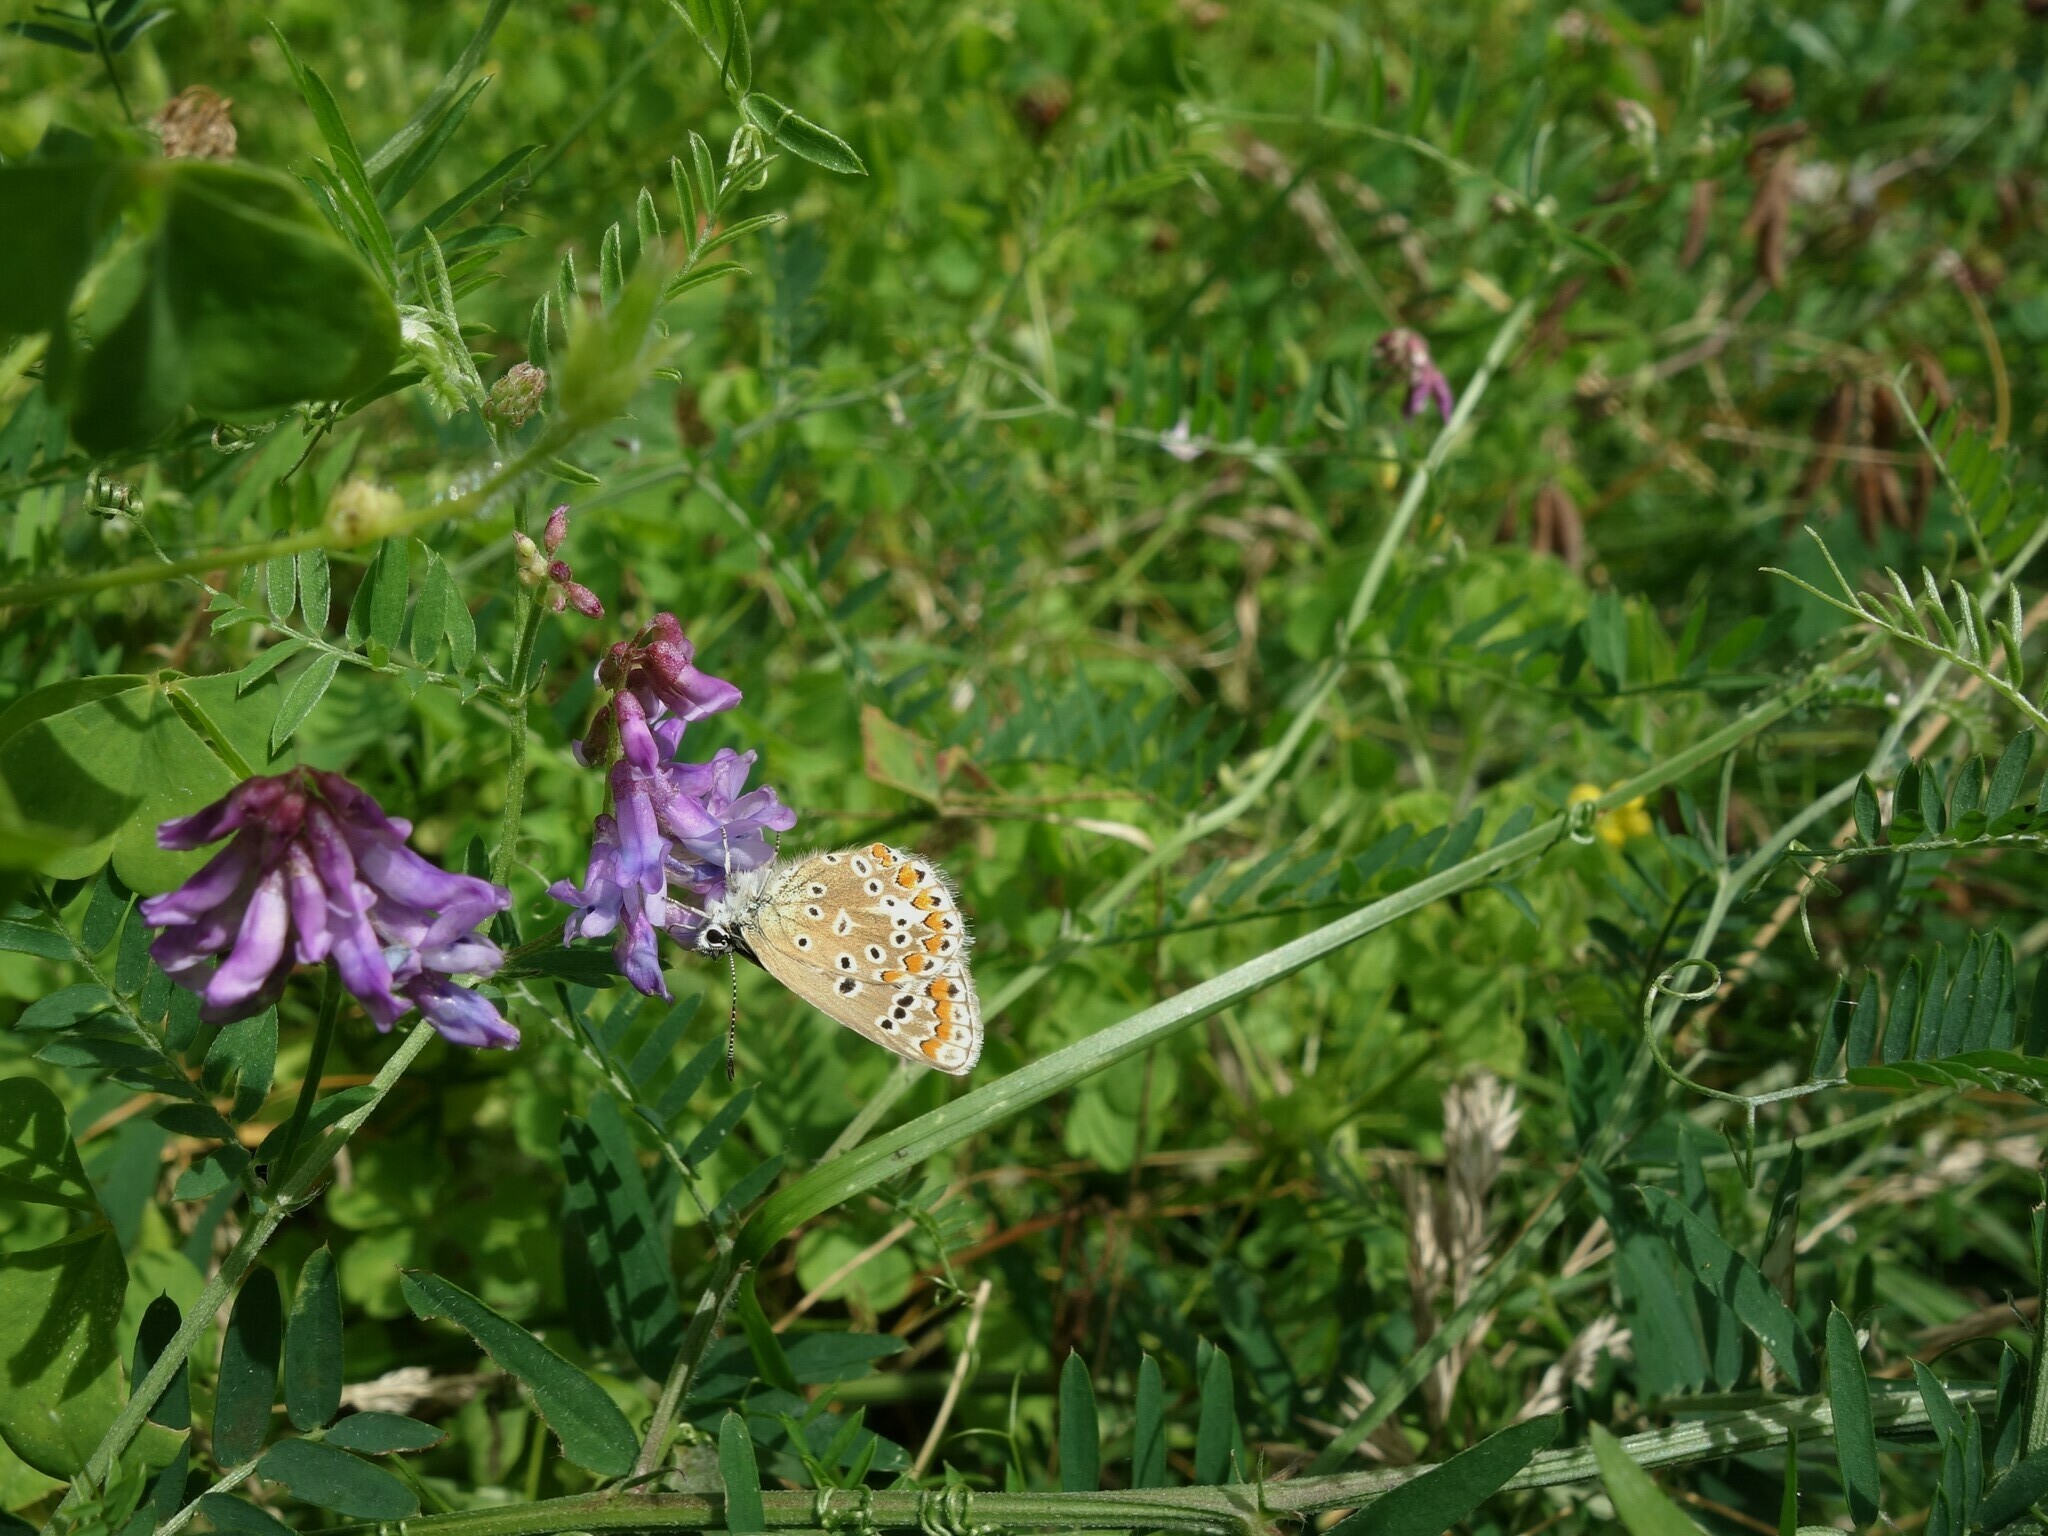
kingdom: Animalia
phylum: Arthropoda
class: Insecta
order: Lepidoptera
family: Lycaenidae
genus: Polyommatus
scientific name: Polyommatus icarus
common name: Common blue
